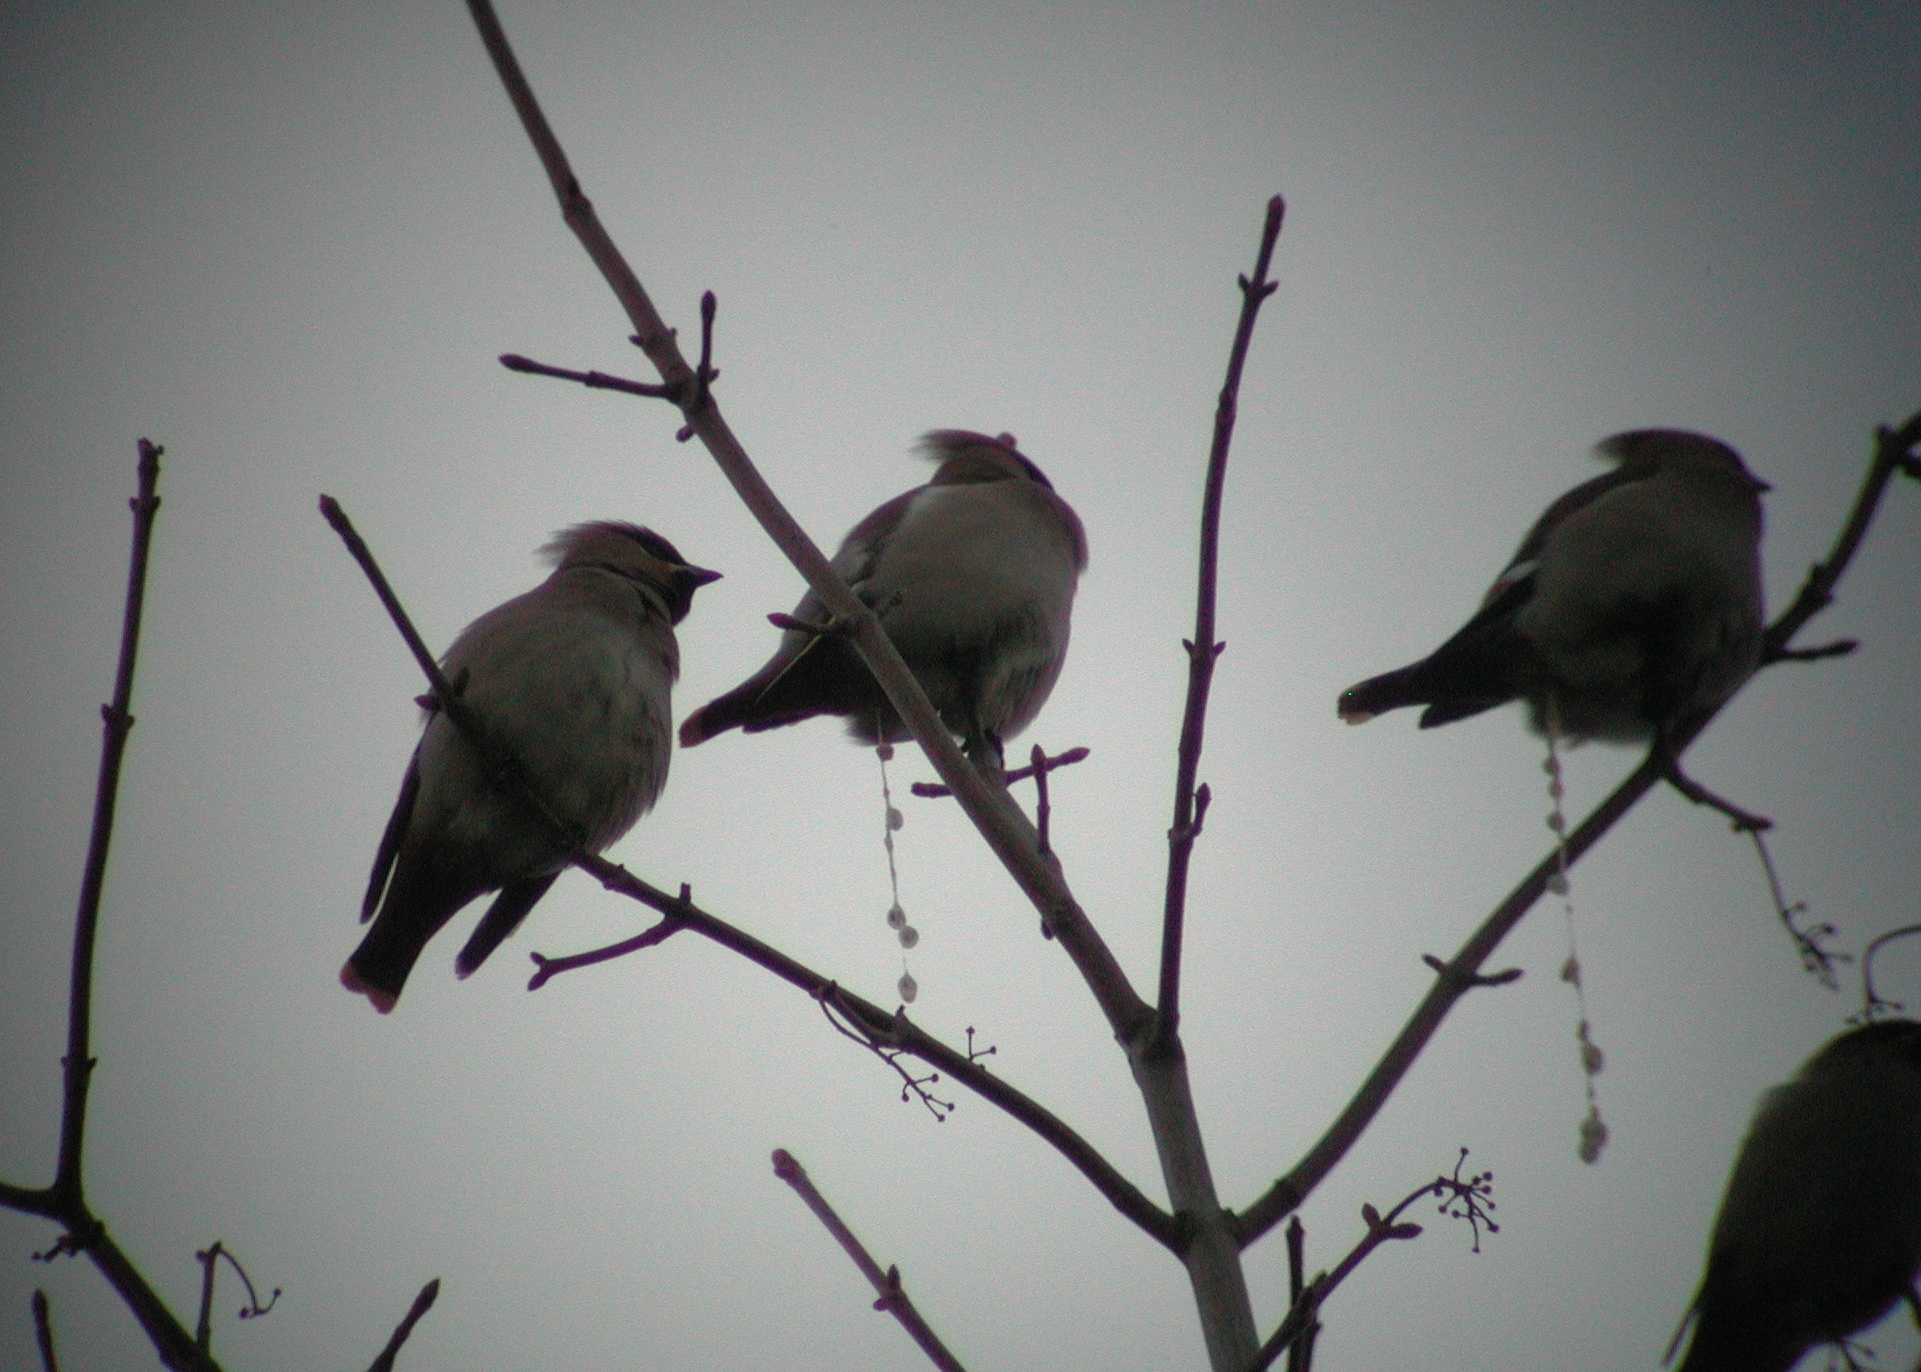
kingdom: Animalia
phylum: Chordata
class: Aves
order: Passeriformes
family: Bombycillidae
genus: Bombycilla
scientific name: Bombycilla garrulus
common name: Bohemian waxwing
